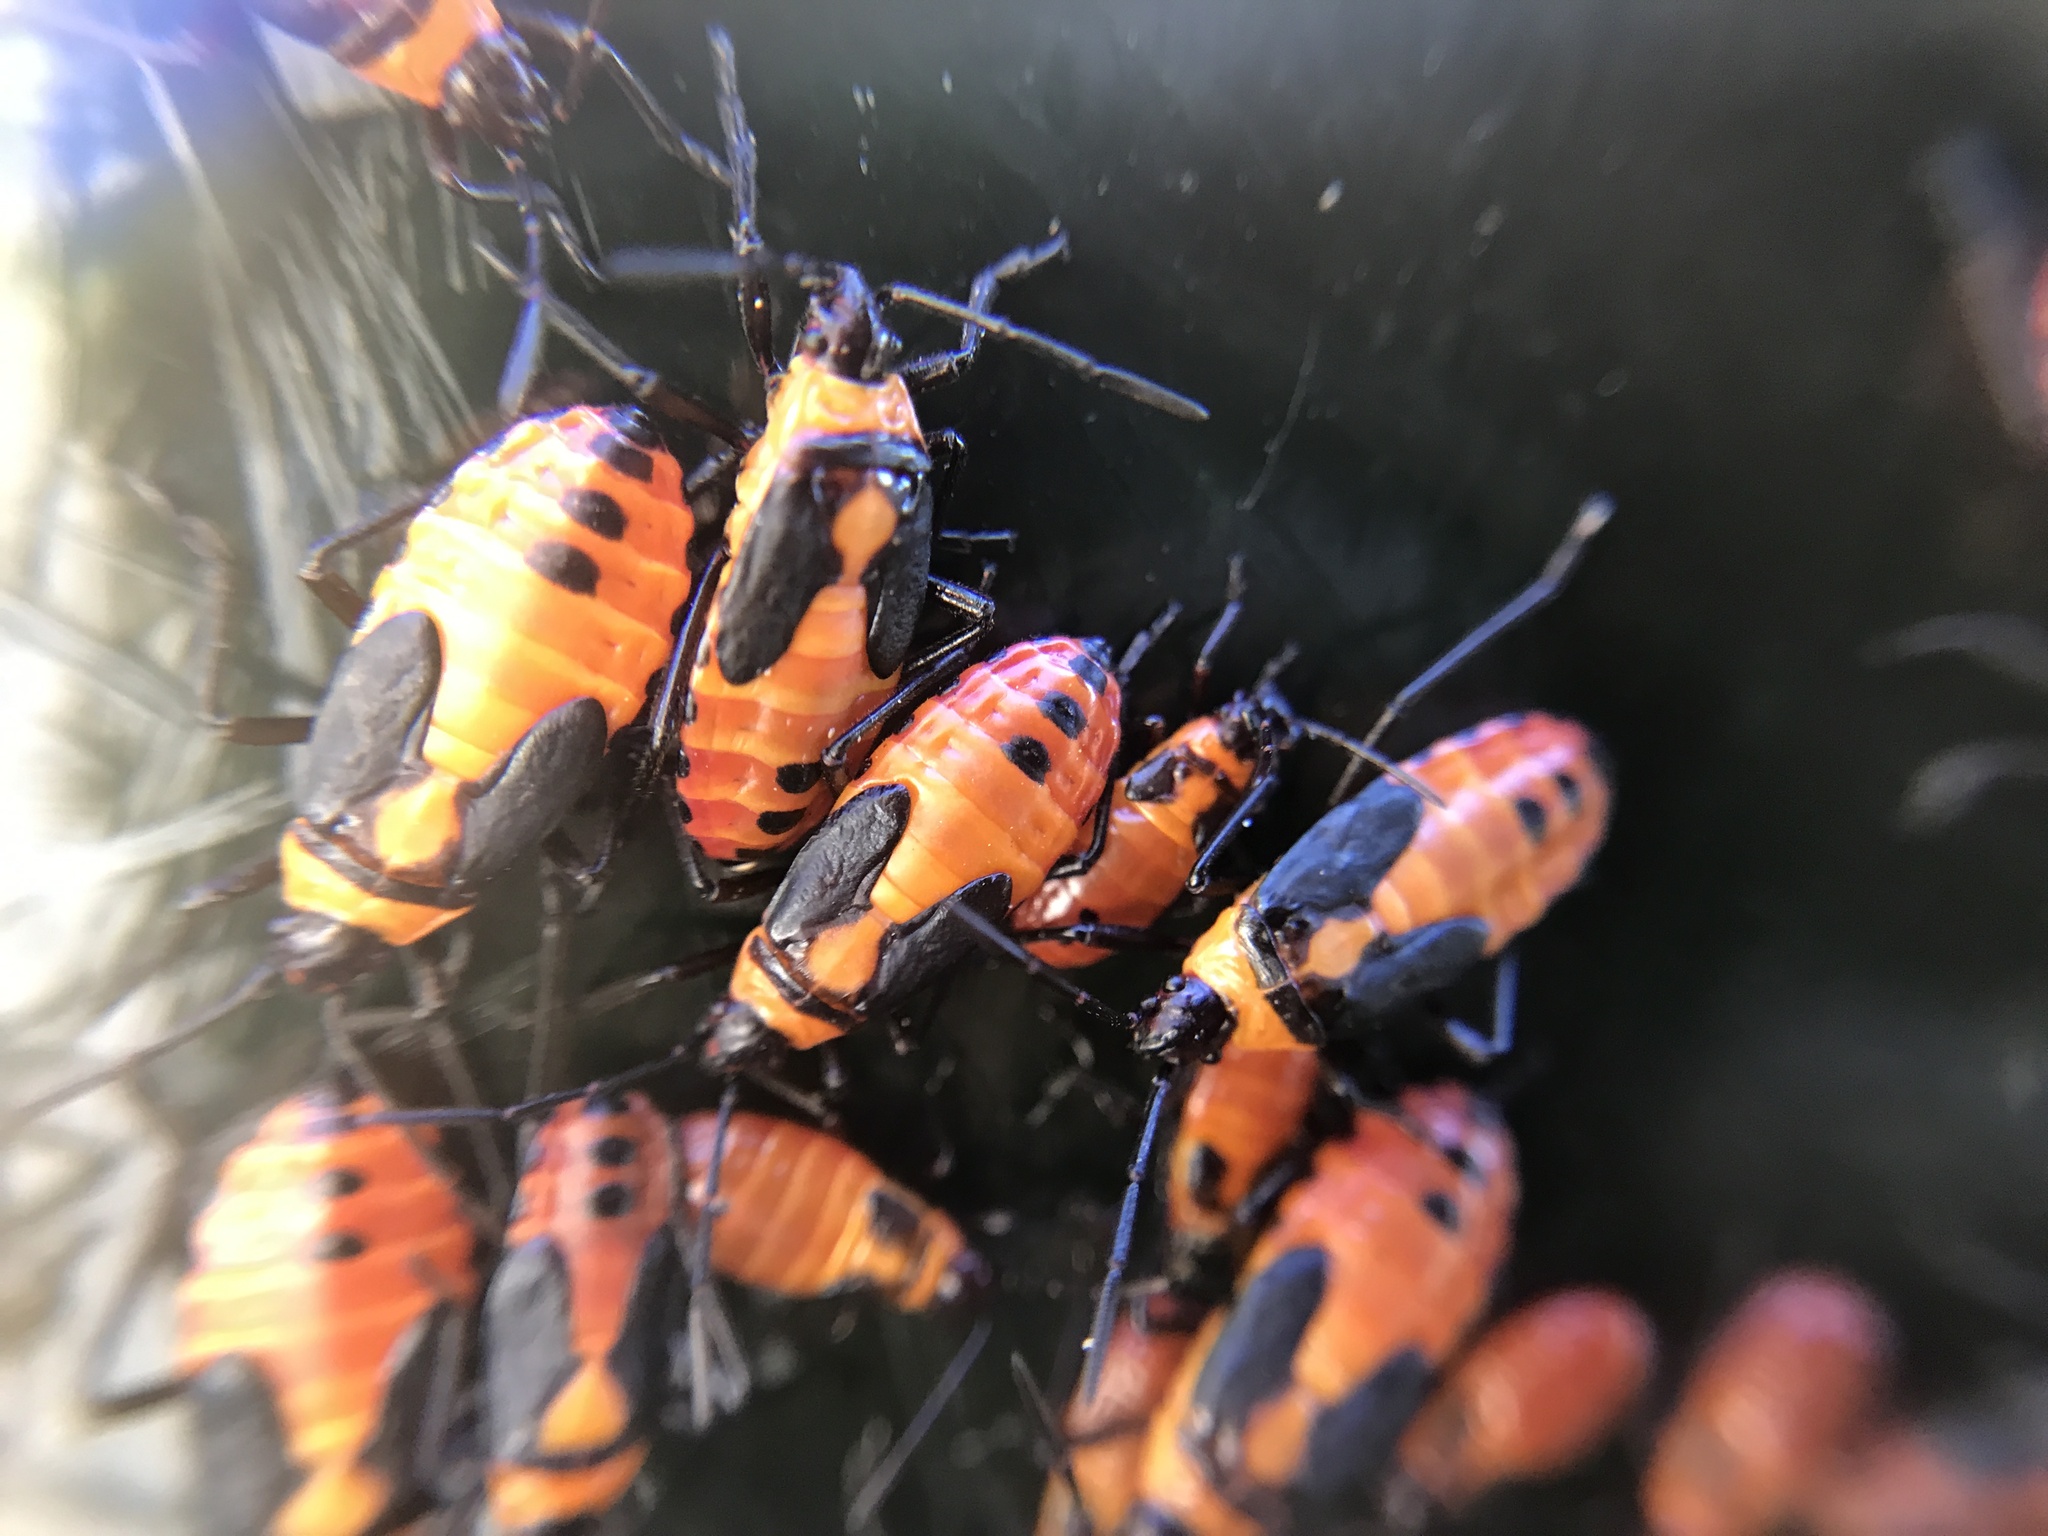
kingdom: Animalia
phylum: Arthropoda
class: Insecta
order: Hemiptera
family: Lygaeidae
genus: Oncopeltus
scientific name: Oncopeltus fasciatus
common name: Large milkweed bug
